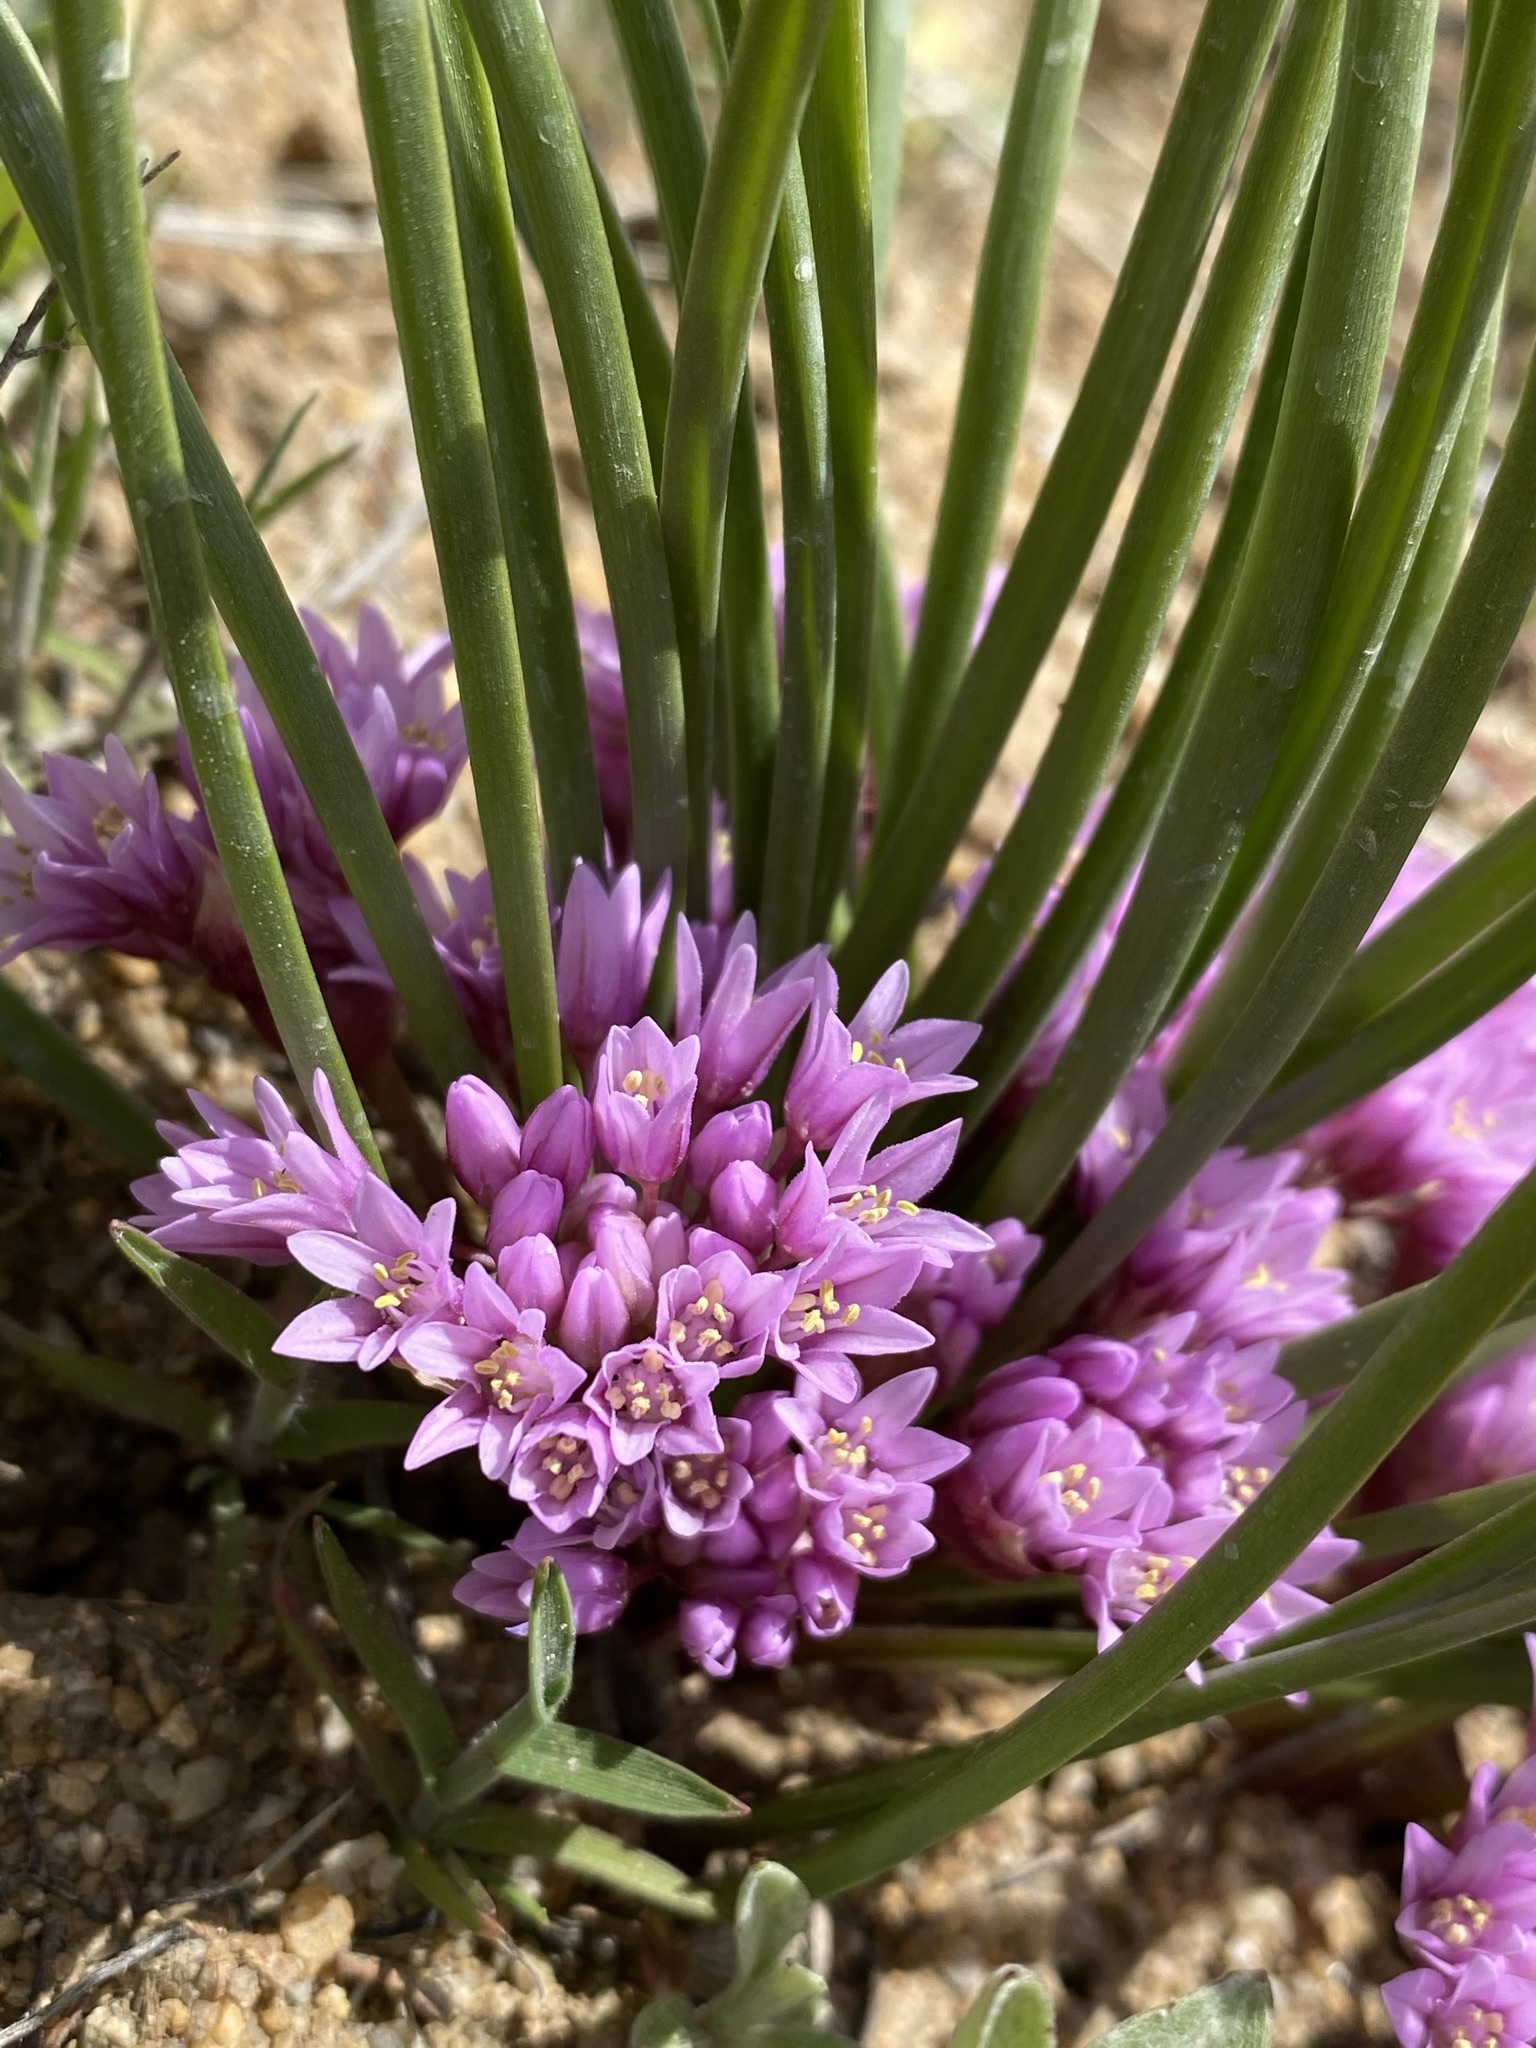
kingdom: Plantae
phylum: Tracheophyta
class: Liliopsida
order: Asparagales
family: Amaryllidaceae
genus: Allium
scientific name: Allium aaseae
